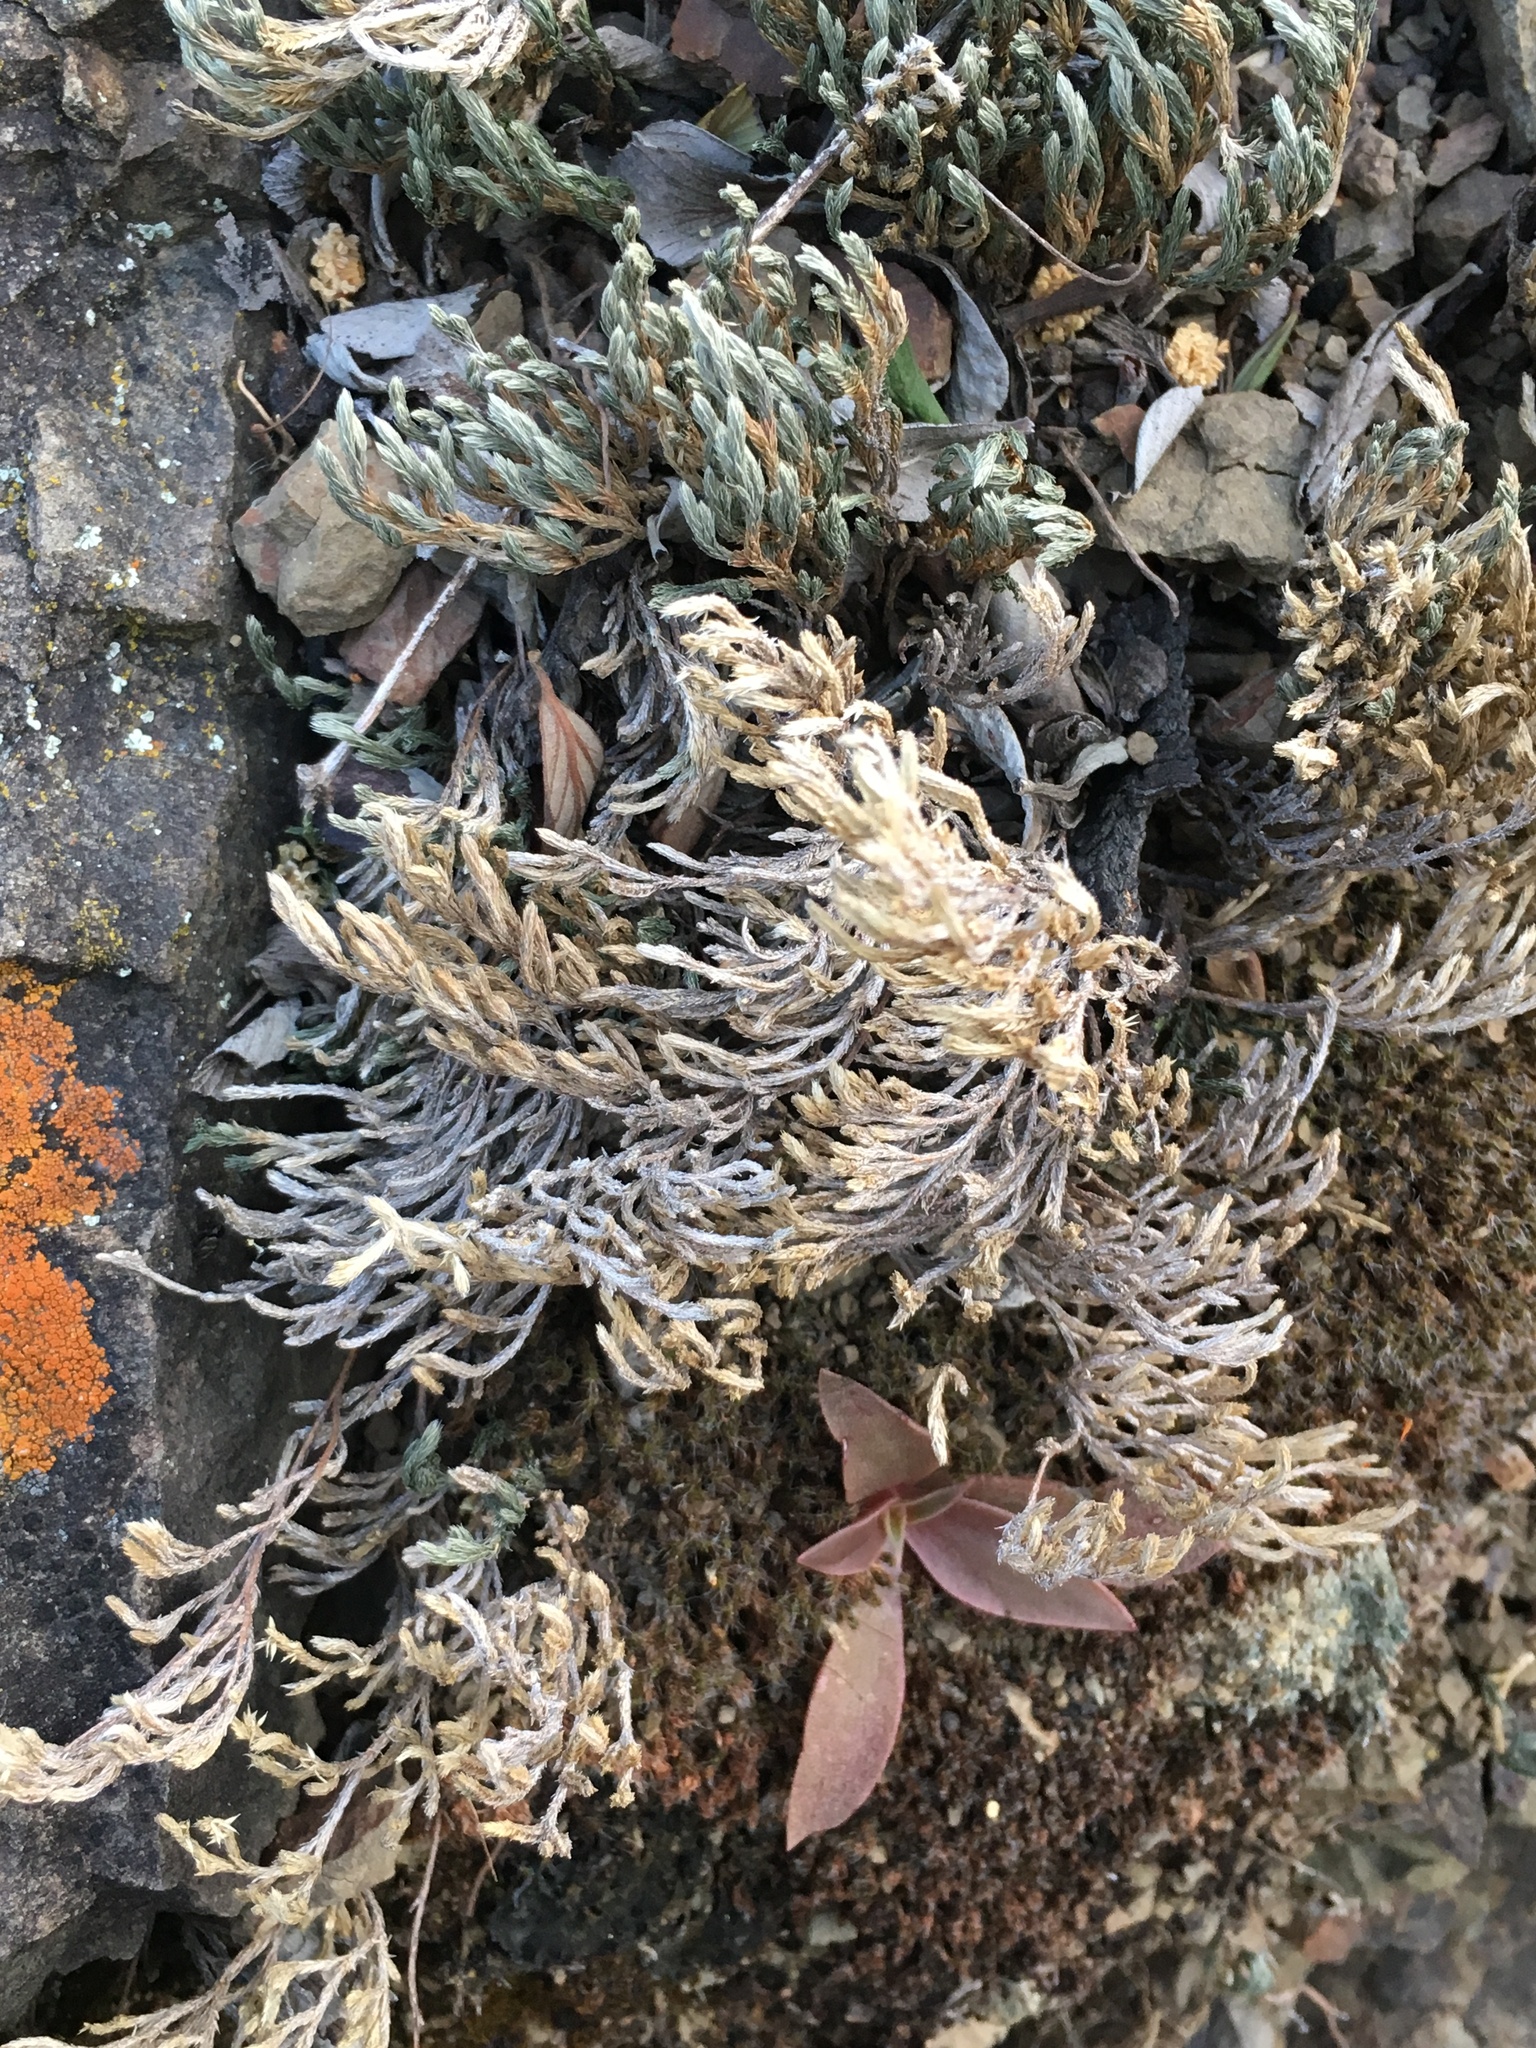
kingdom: Plantae
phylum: Tracheophyta
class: Lycopodiopsida
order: Selaginellales
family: Selaginellaceae
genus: Selaginella
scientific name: Selaginella bigelovii
